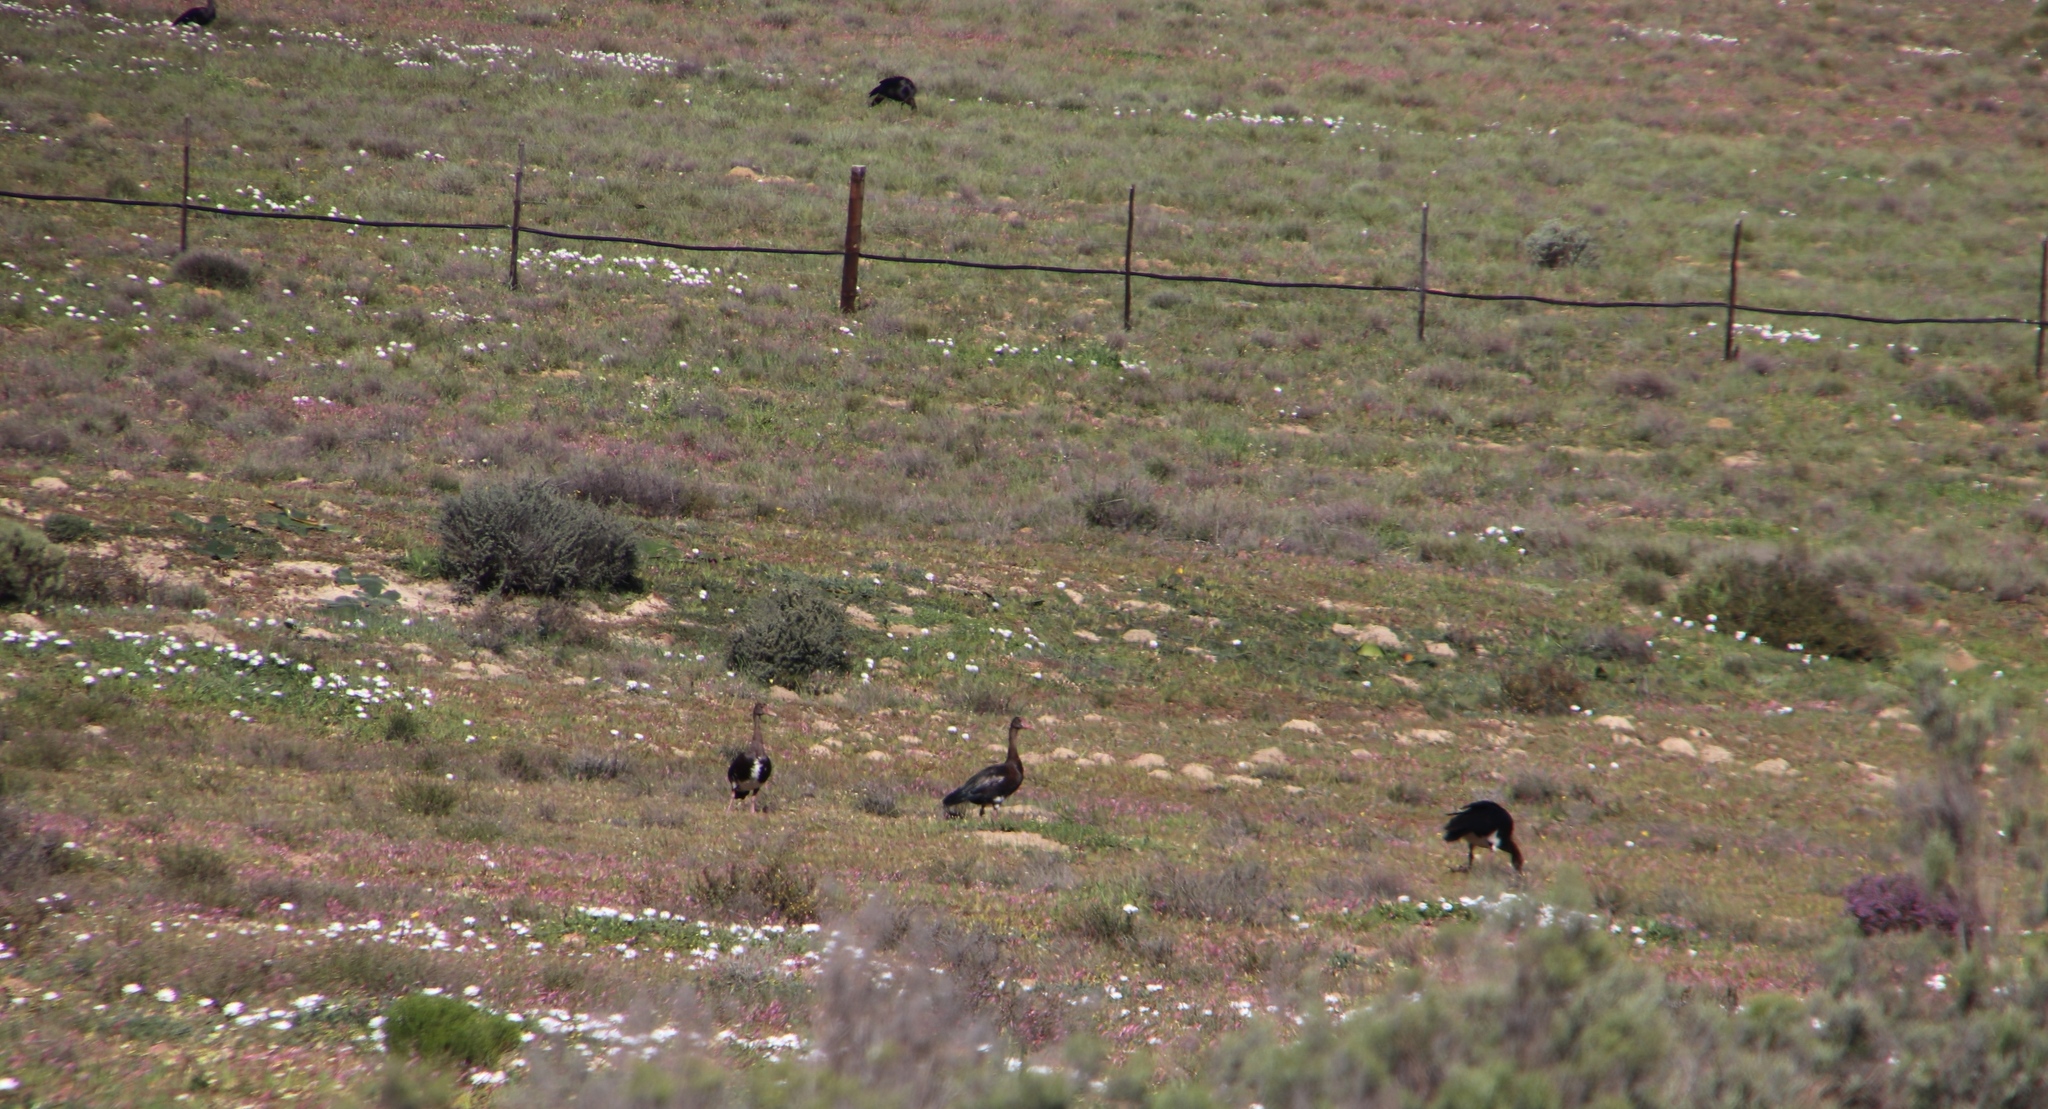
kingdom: Animalia
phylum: Chordata
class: Aves
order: Anseriformes
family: Anatidae
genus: Plectropterus
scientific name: Plectropterus gambensis
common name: Spur-winged goose
